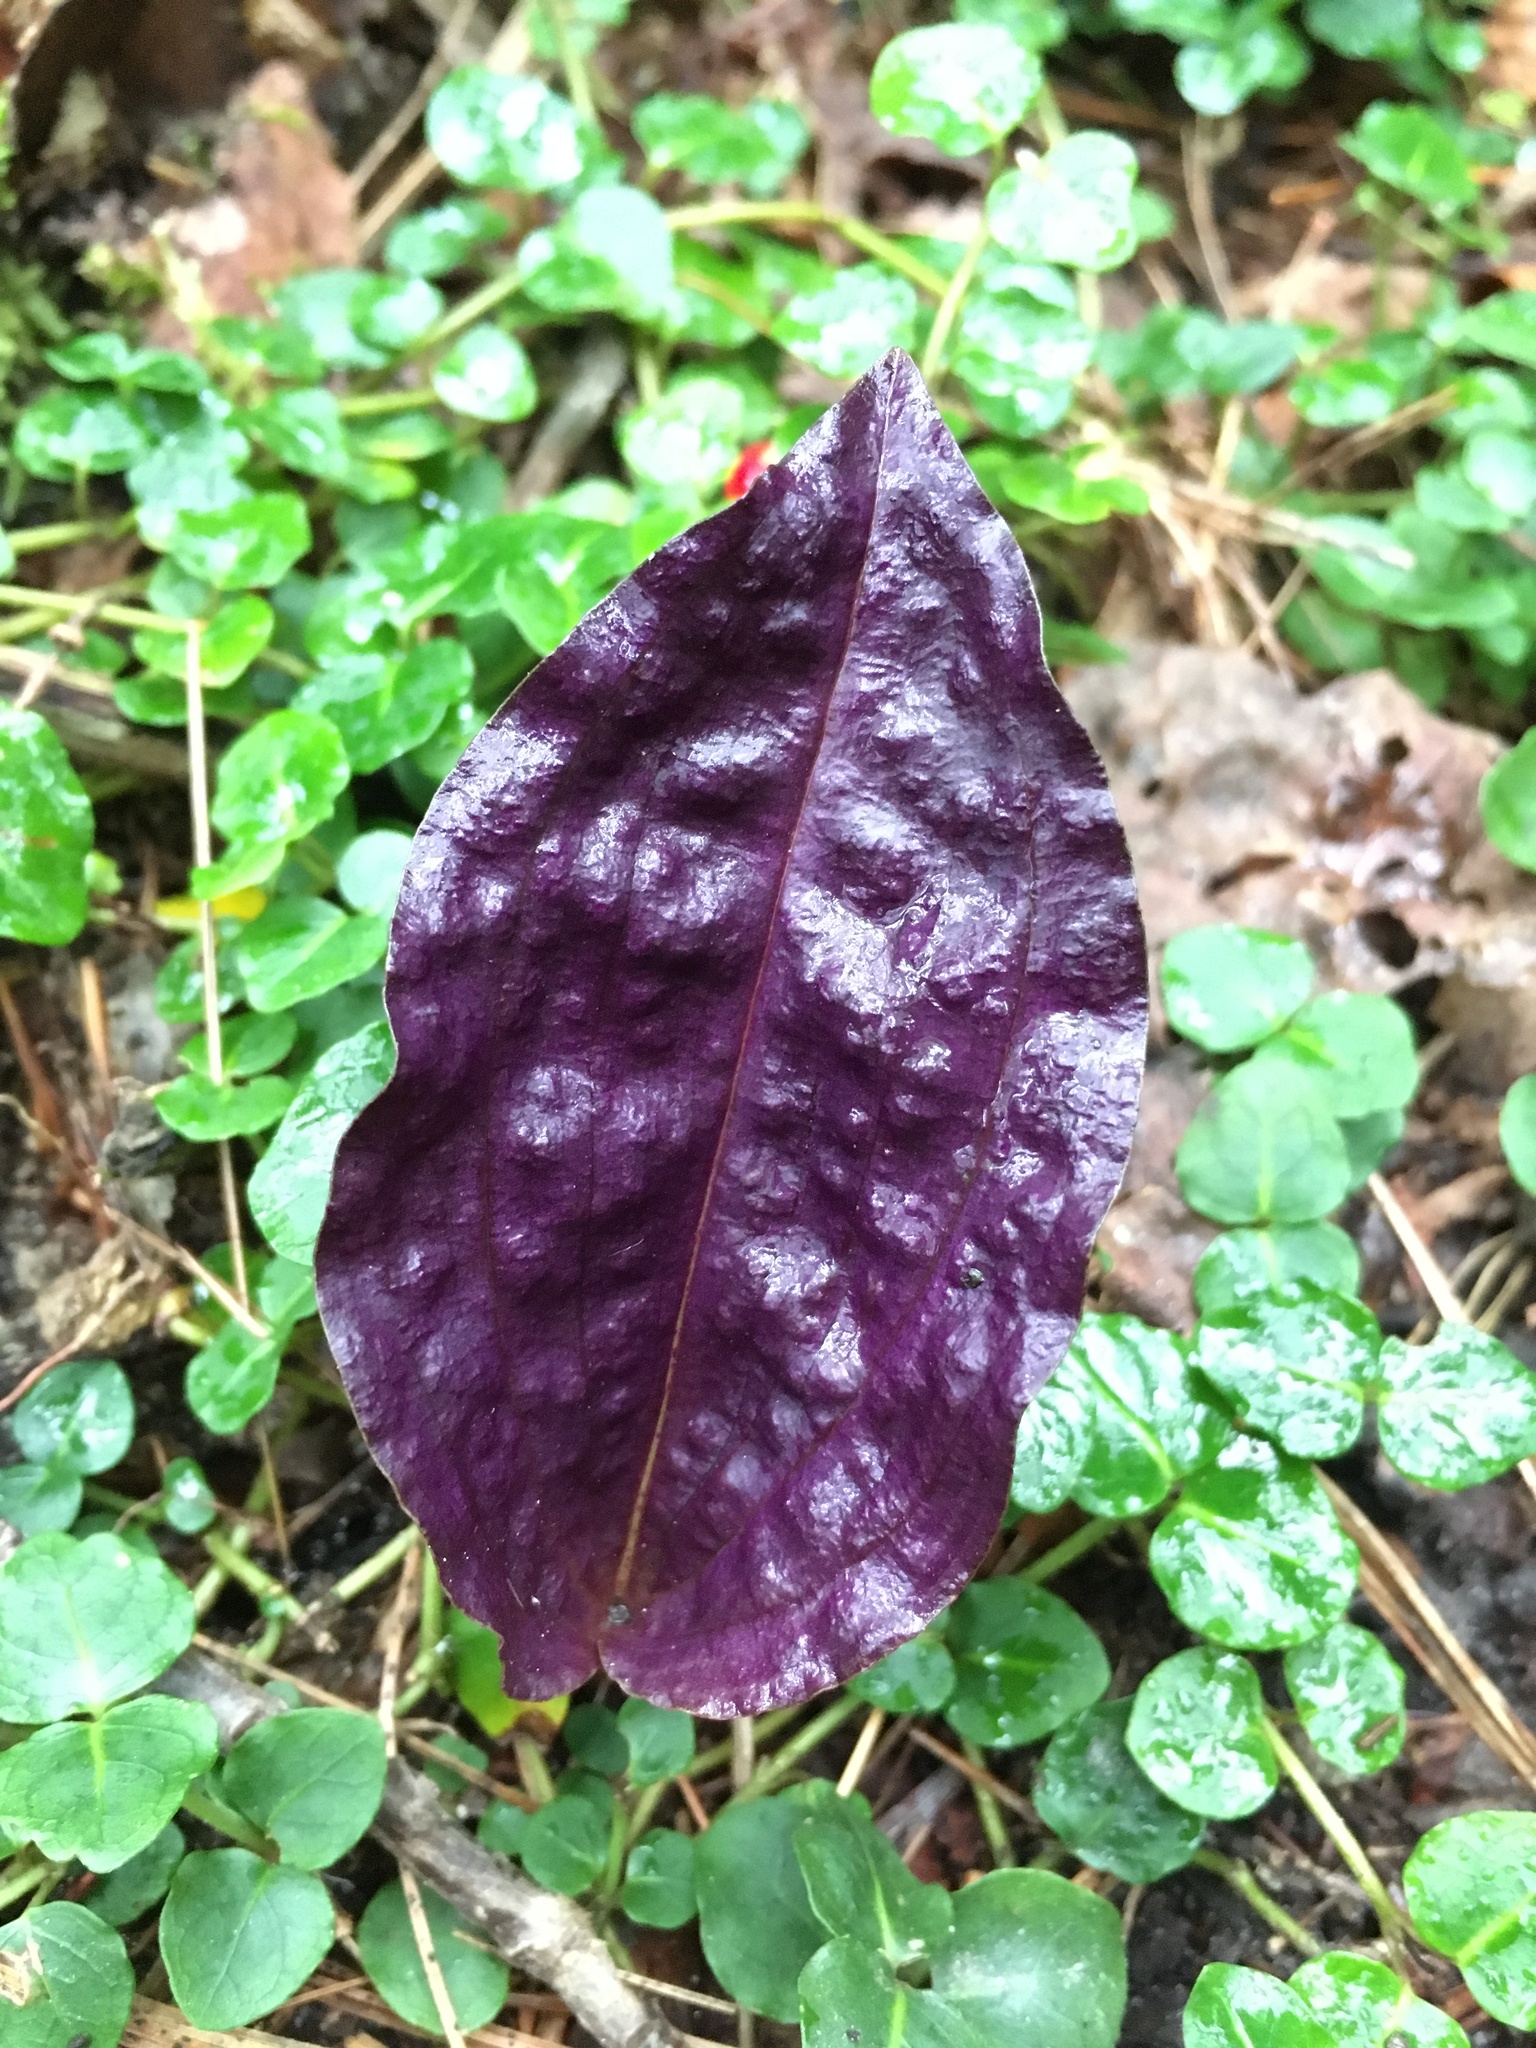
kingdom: Plantae
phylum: Tracheophyta
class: Liliopsida
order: Asparagales
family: Orchidaceae
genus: Tipularia
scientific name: Tipularia discolor
